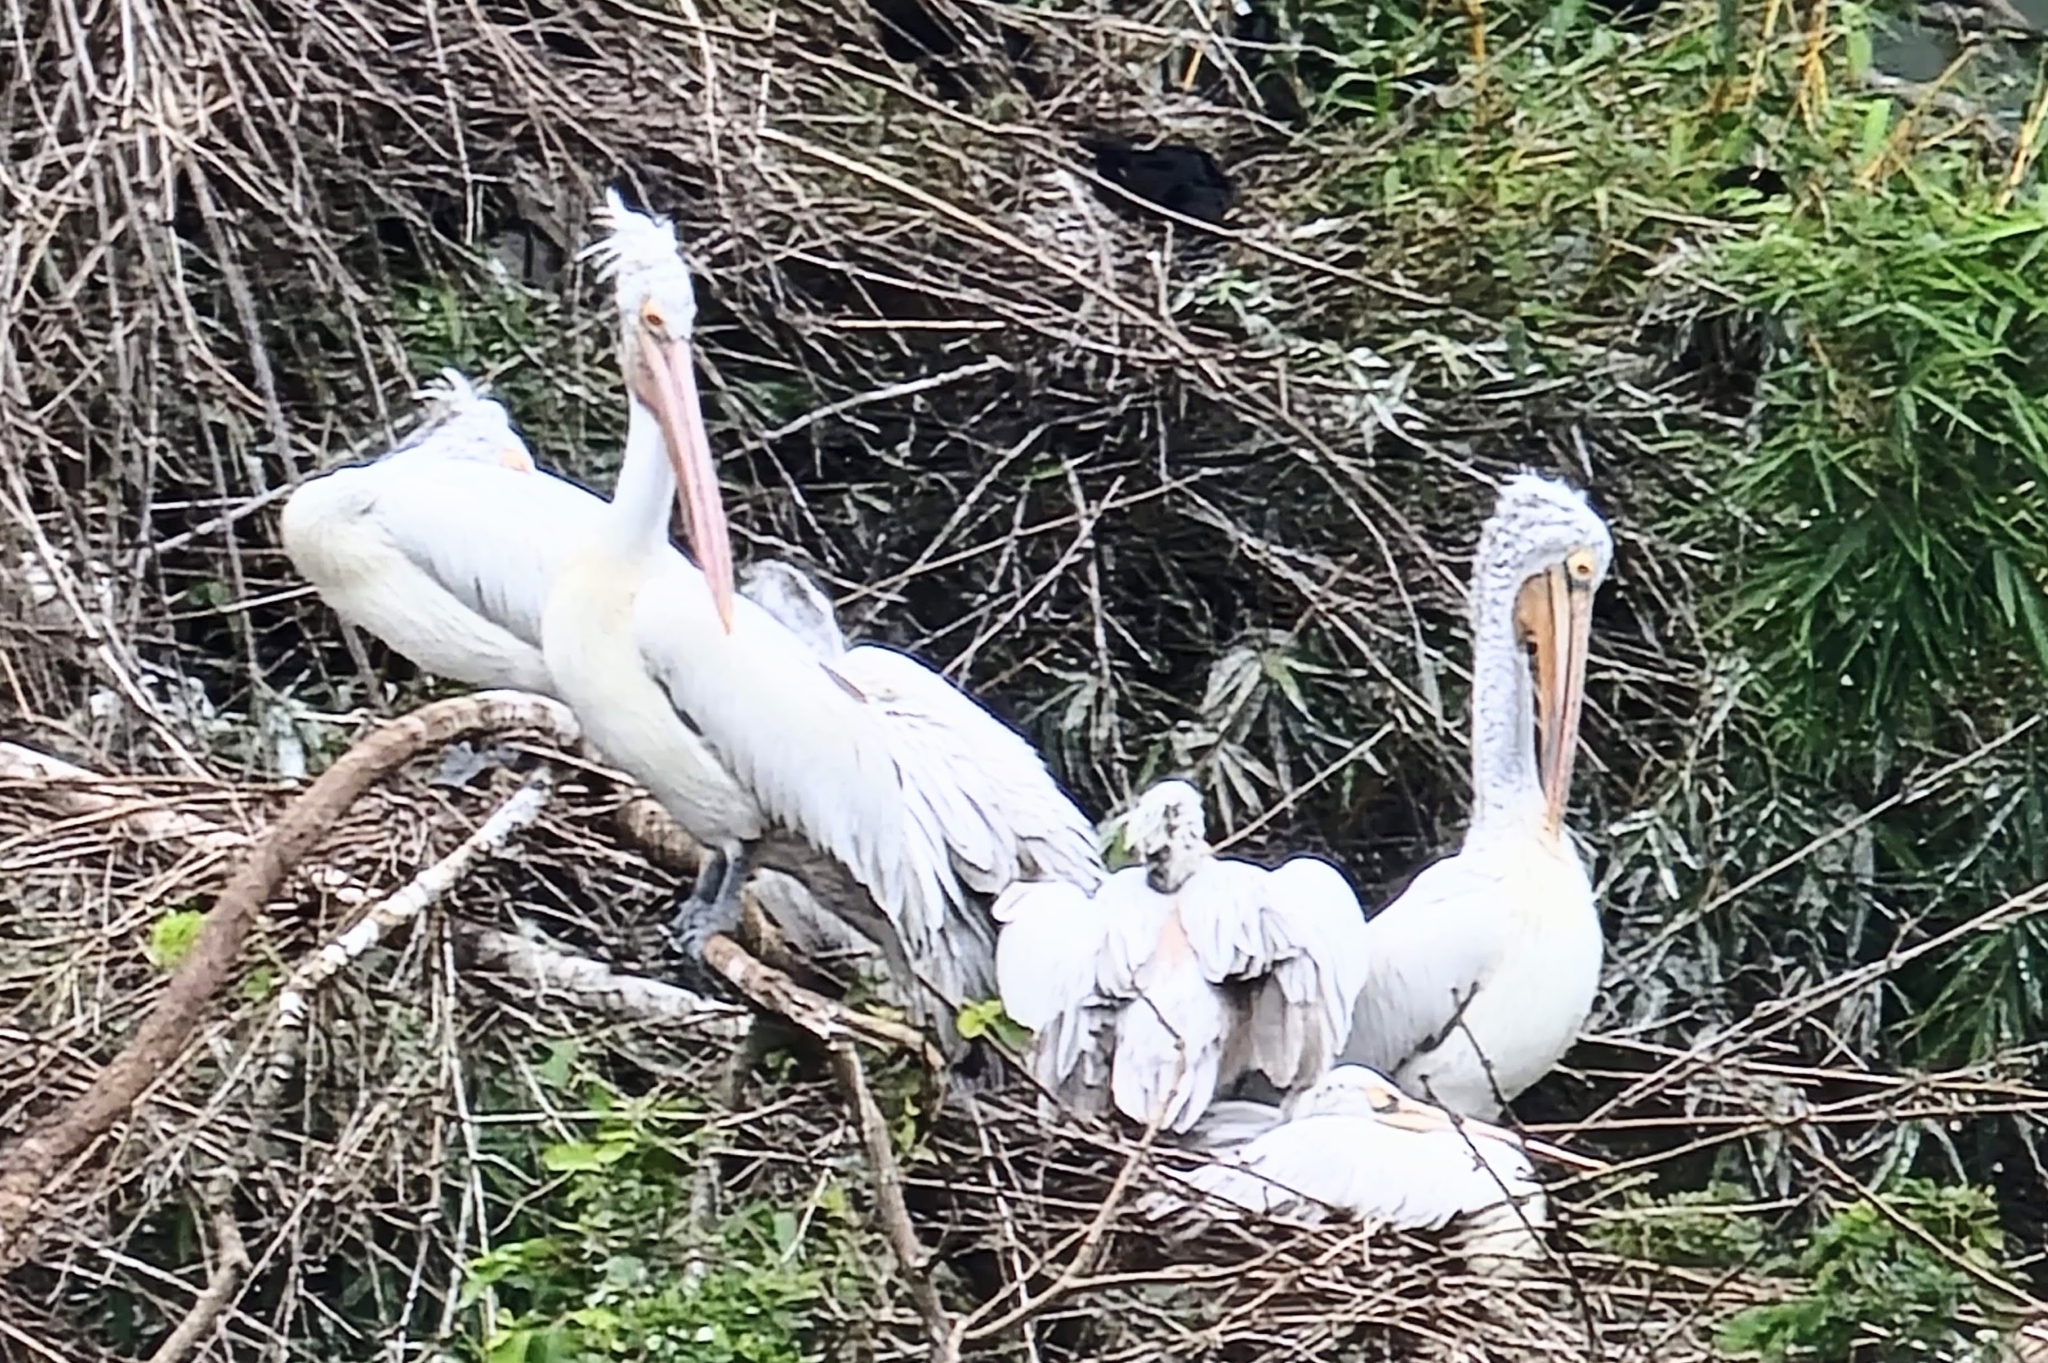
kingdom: Animalia
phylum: Chordata
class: Aves
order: Pelecaniformes
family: Pelecanidae
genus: Pelecanus
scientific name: Pelecanus philippensis
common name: Spot-billed pelican
